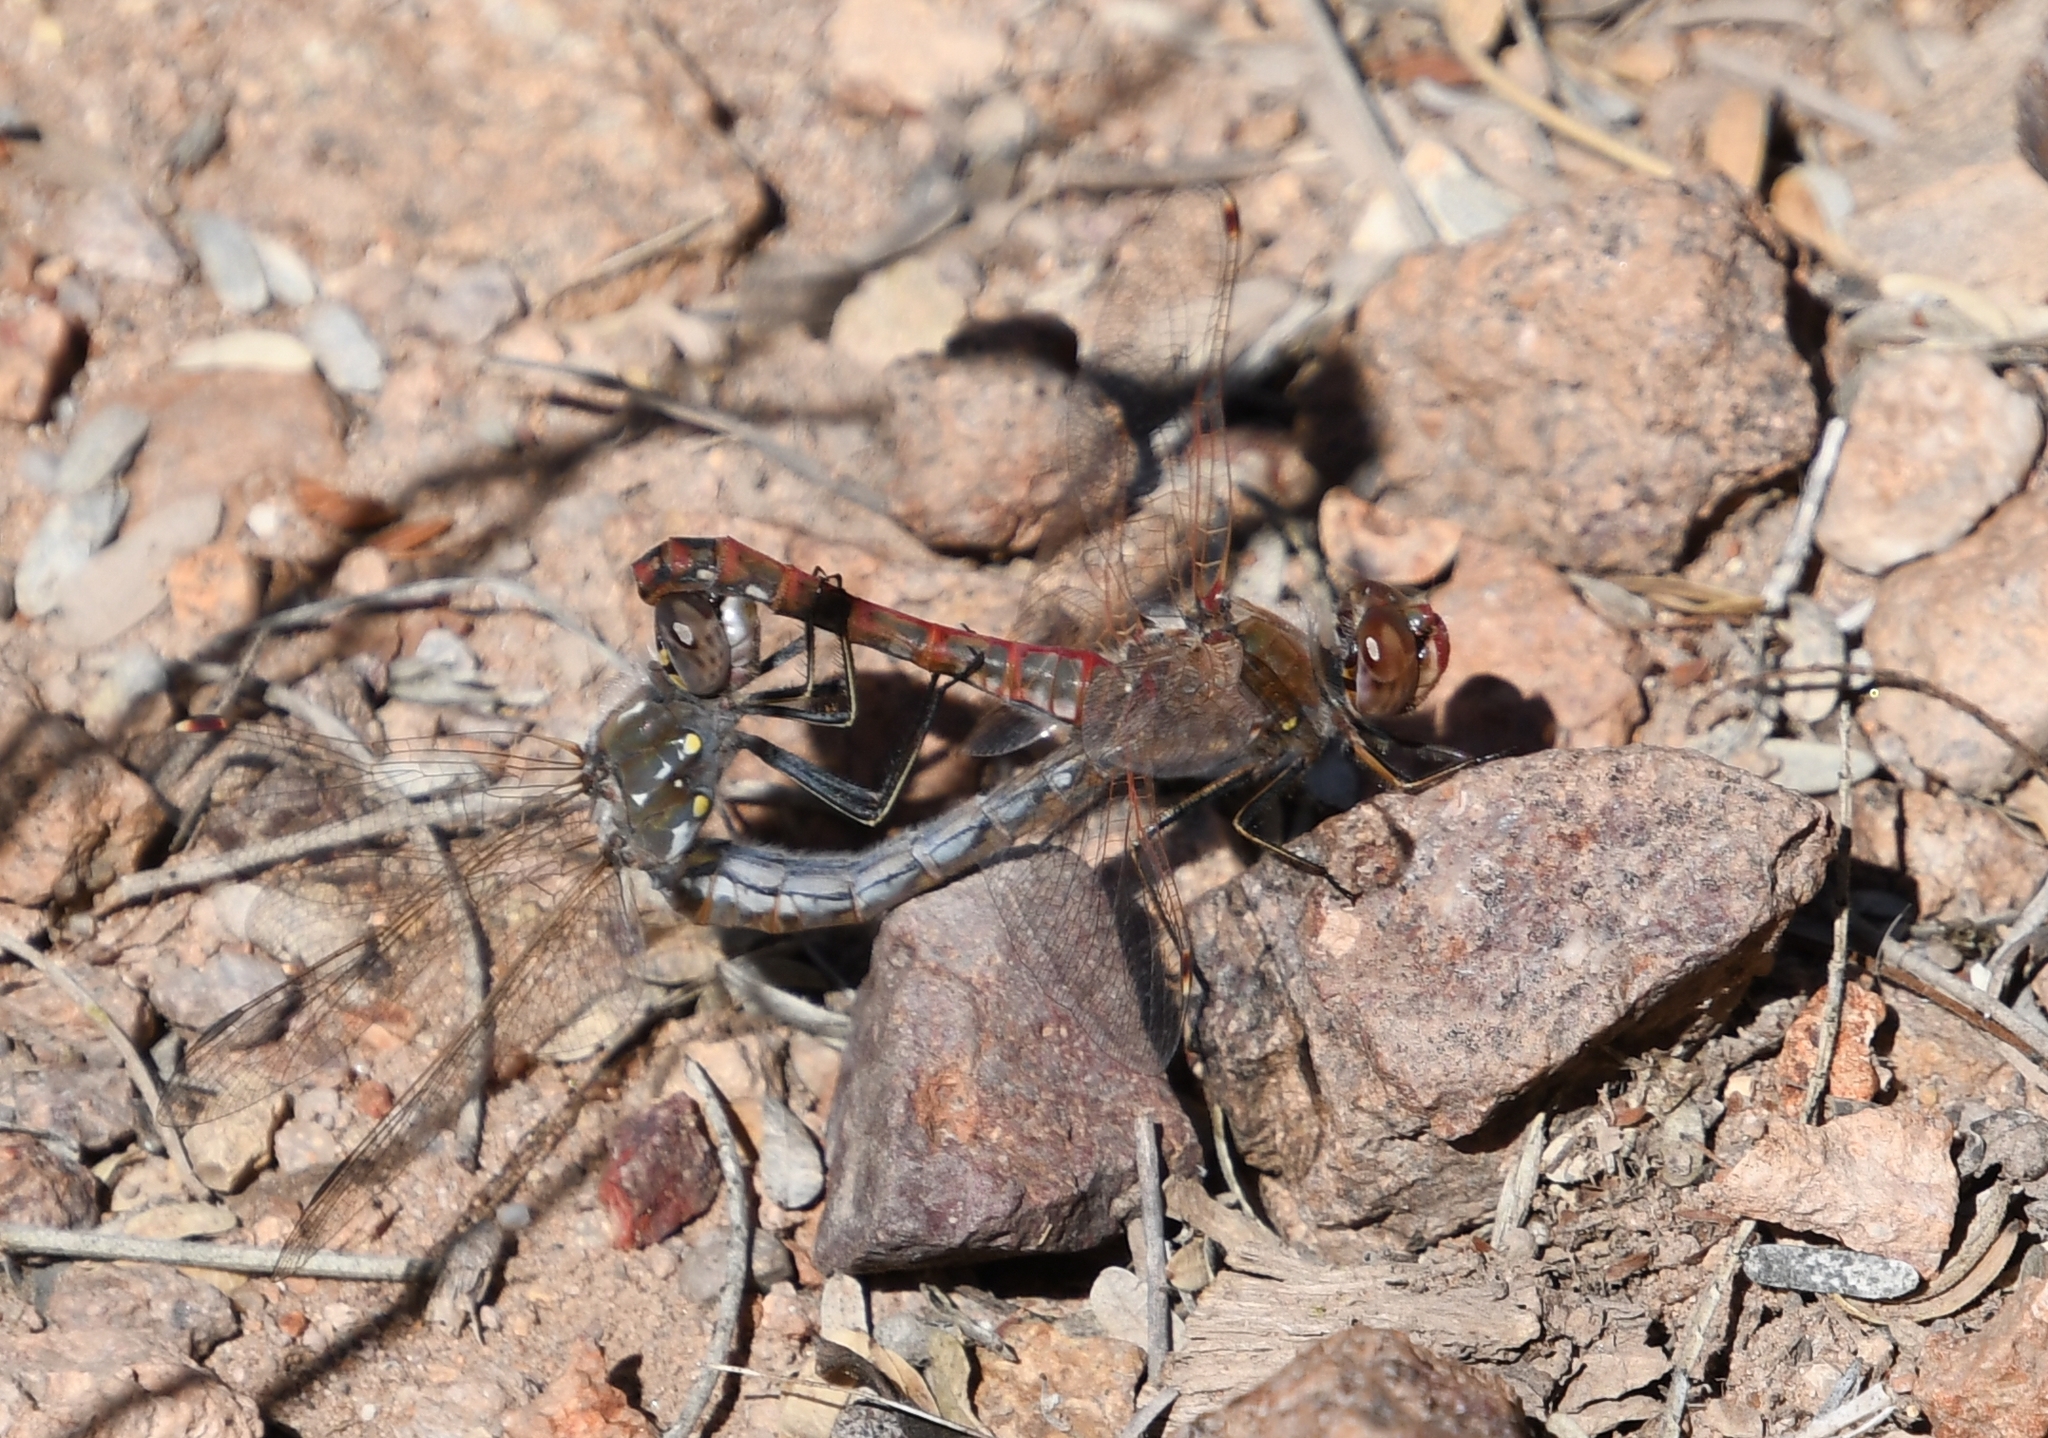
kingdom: Animalia
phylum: Arthropoda
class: Insecta
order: Odonata
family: Libellulidae
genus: Sympetrum
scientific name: Sympetrum corruptum
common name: Variegated meadowhawk
